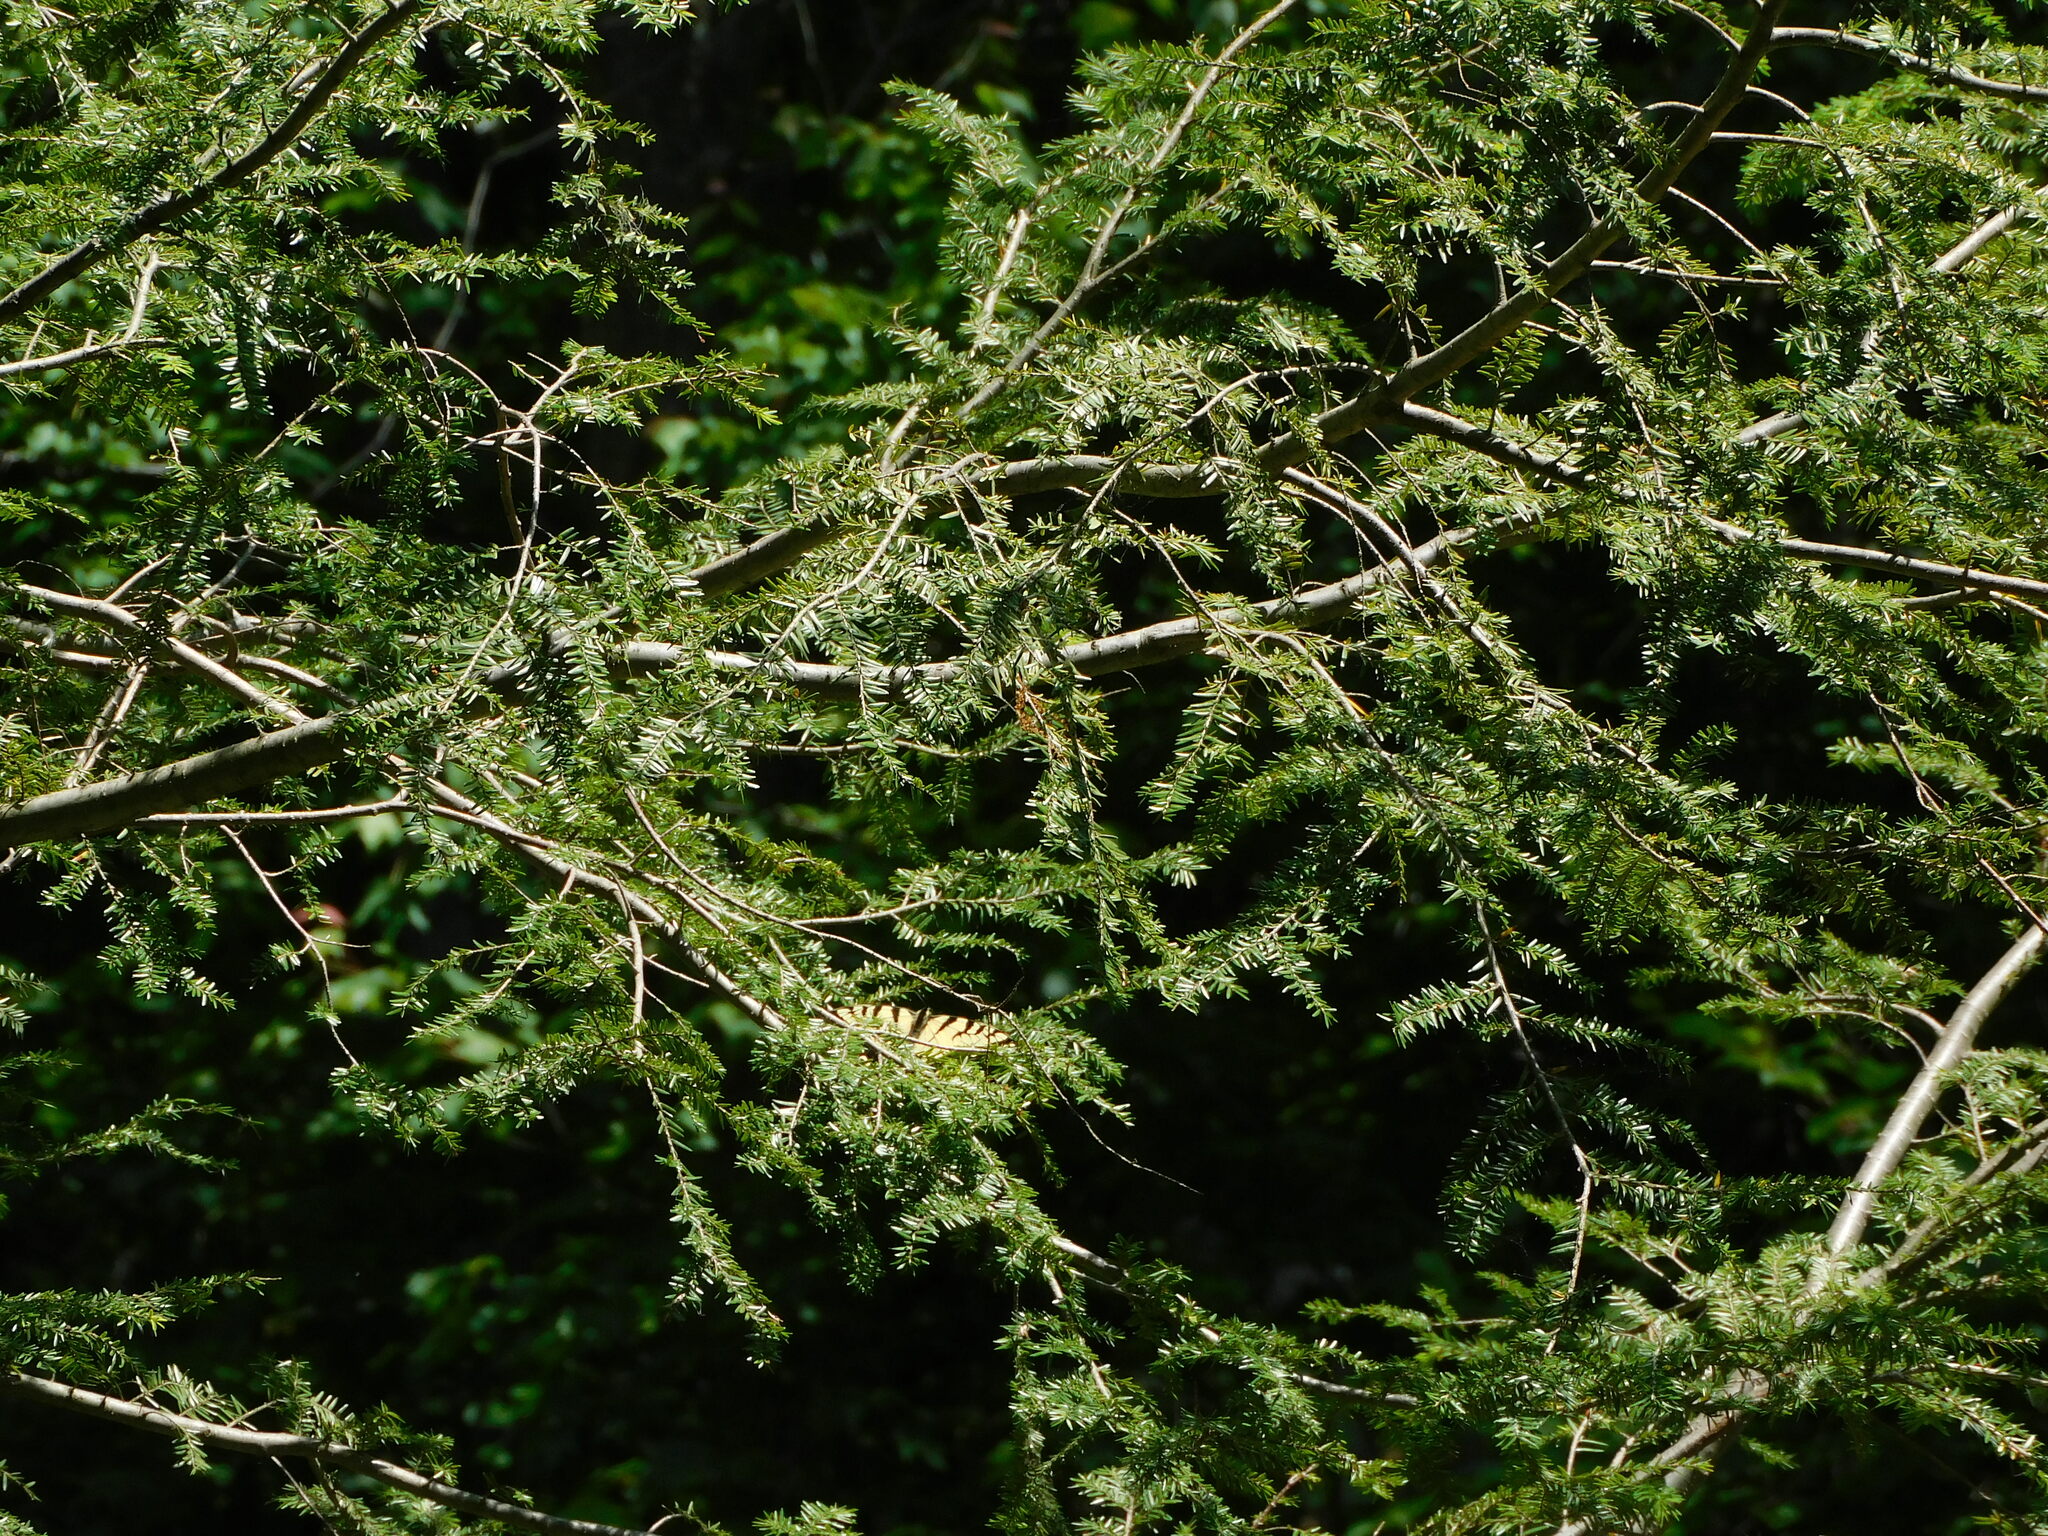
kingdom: Plantae
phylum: Tracheophyta
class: Pinopsida
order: Pinales
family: Pinaceae
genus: Tsuga
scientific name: Tsuga canadensis
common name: Eastern hemlock
